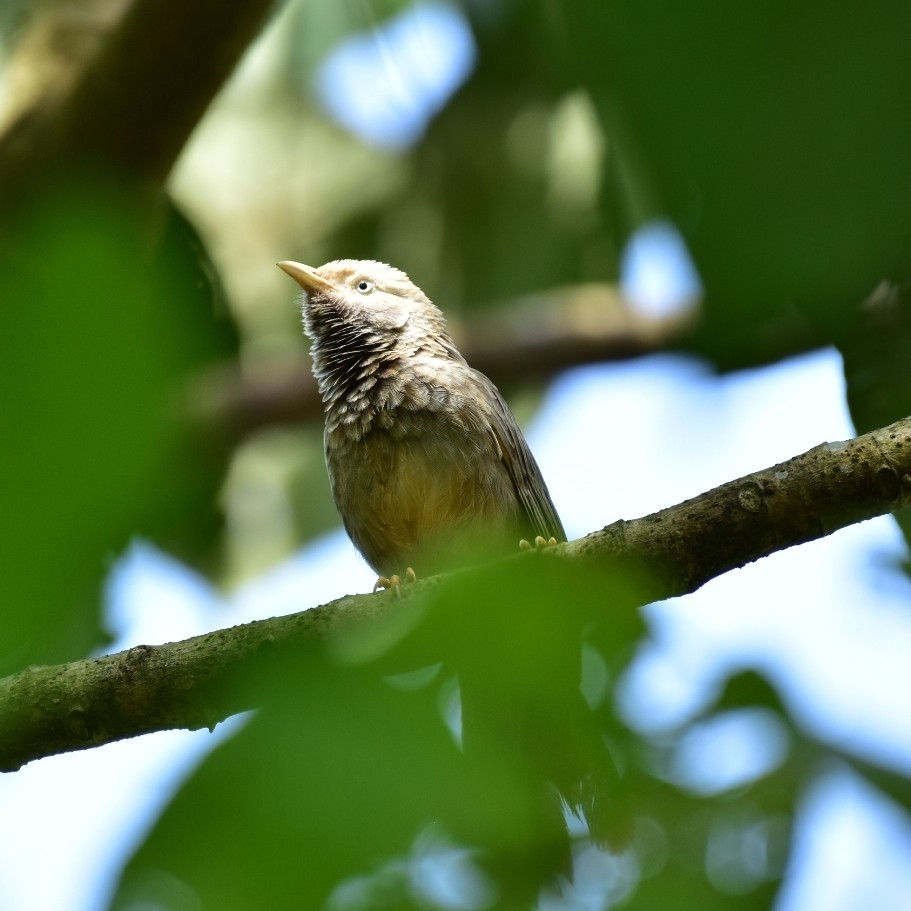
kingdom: Animalia
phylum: Chordata
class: Aves
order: Passeriformes
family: Leiothrichidae
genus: Turdoides
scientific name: Turdoides affinis
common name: Yellow-billed babbler
